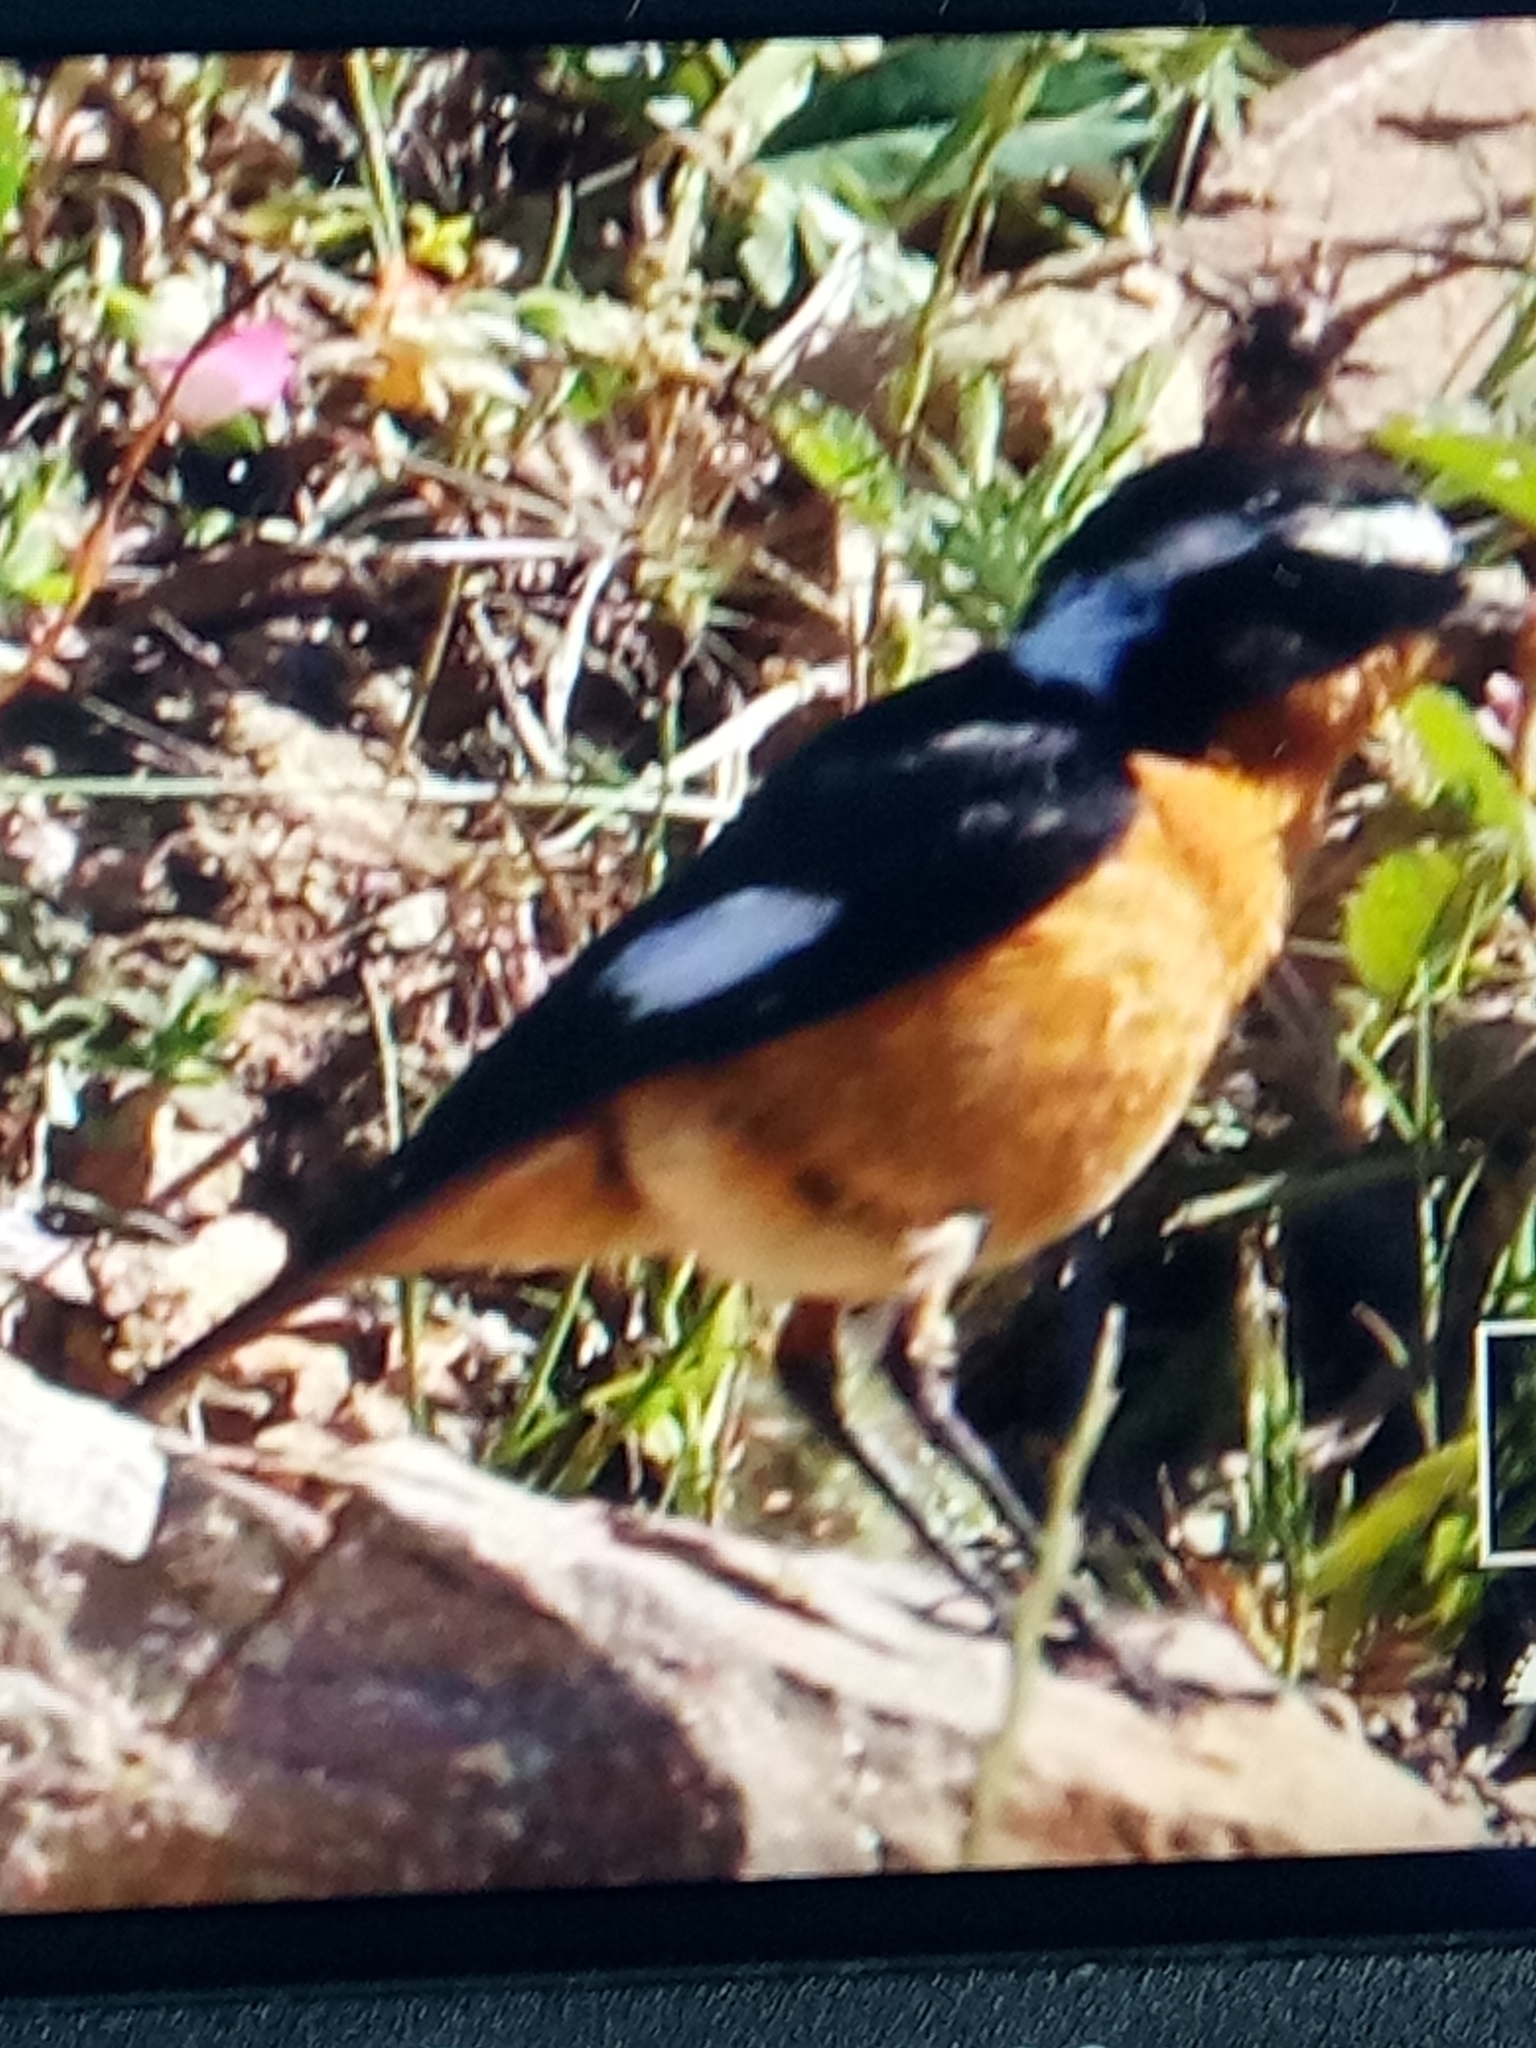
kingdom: Animalia
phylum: Chordata
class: Aves
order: Passeriformes
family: Muscicapidae
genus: Phoenicurus
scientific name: Phoenicurus moussieri
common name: Moussier's redstart
